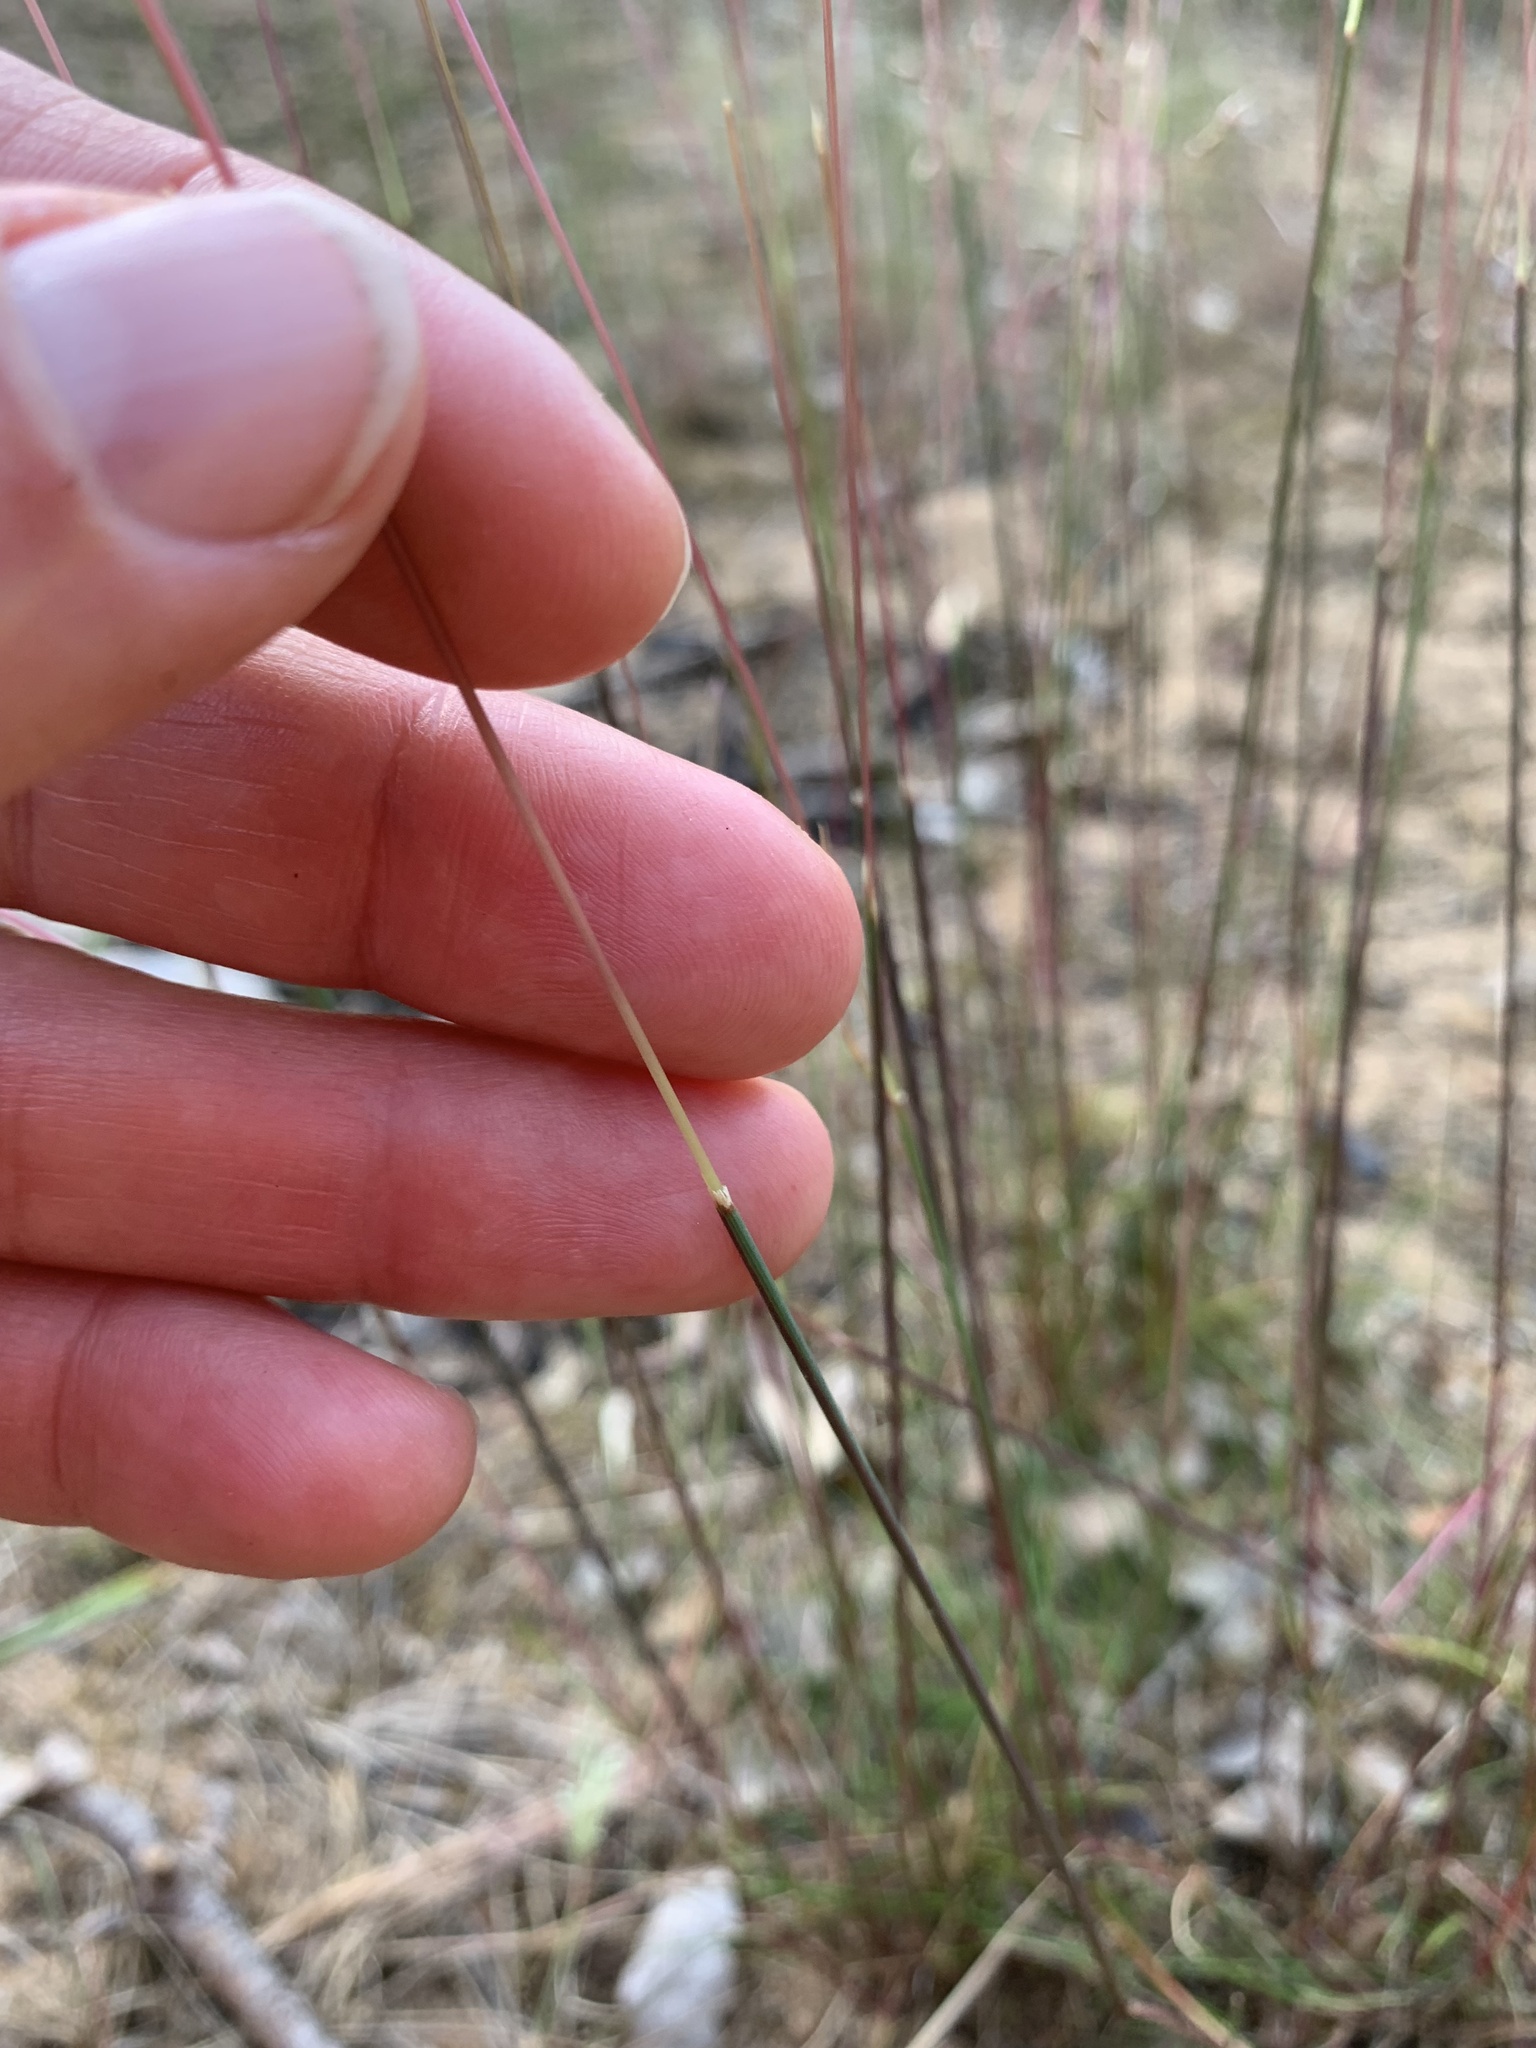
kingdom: Plantae
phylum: Tracheophyta
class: Liliopsida
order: Poales
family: Poaceae
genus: Avenella
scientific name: Avenella flexuosa
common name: Wavy hairgrass
